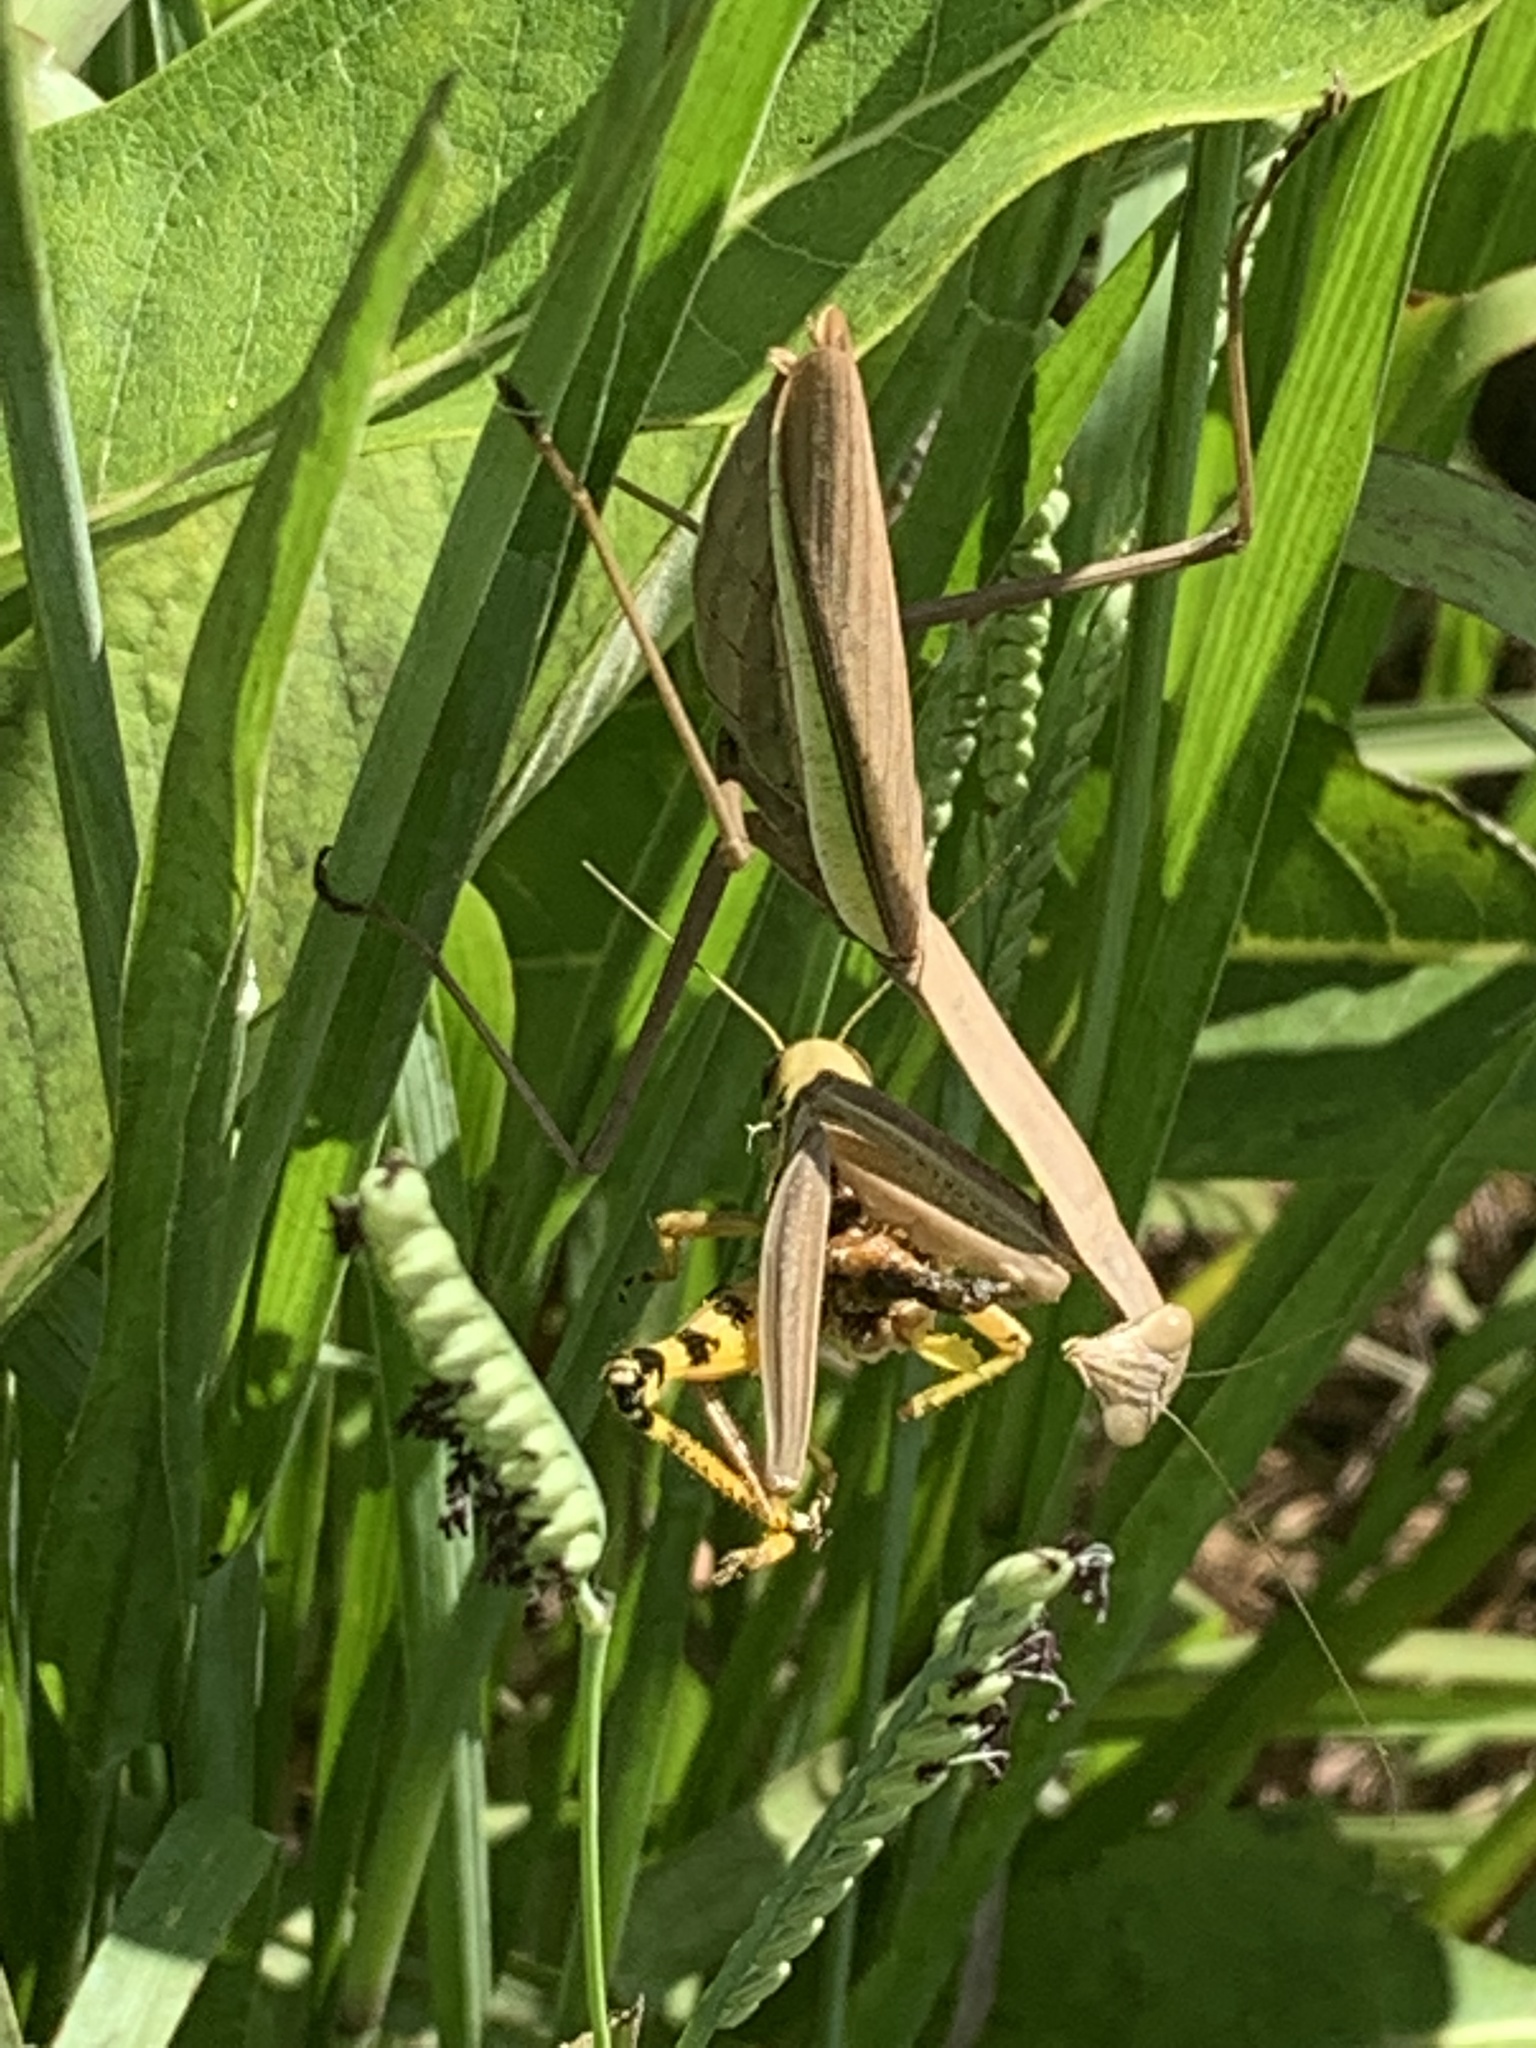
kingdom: Animalia
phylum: Arthropoda
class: Insecta
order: Mantodea
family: Mantidae
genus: Tenodera
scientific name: Tenodera sinensis
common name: Chinese mantis
